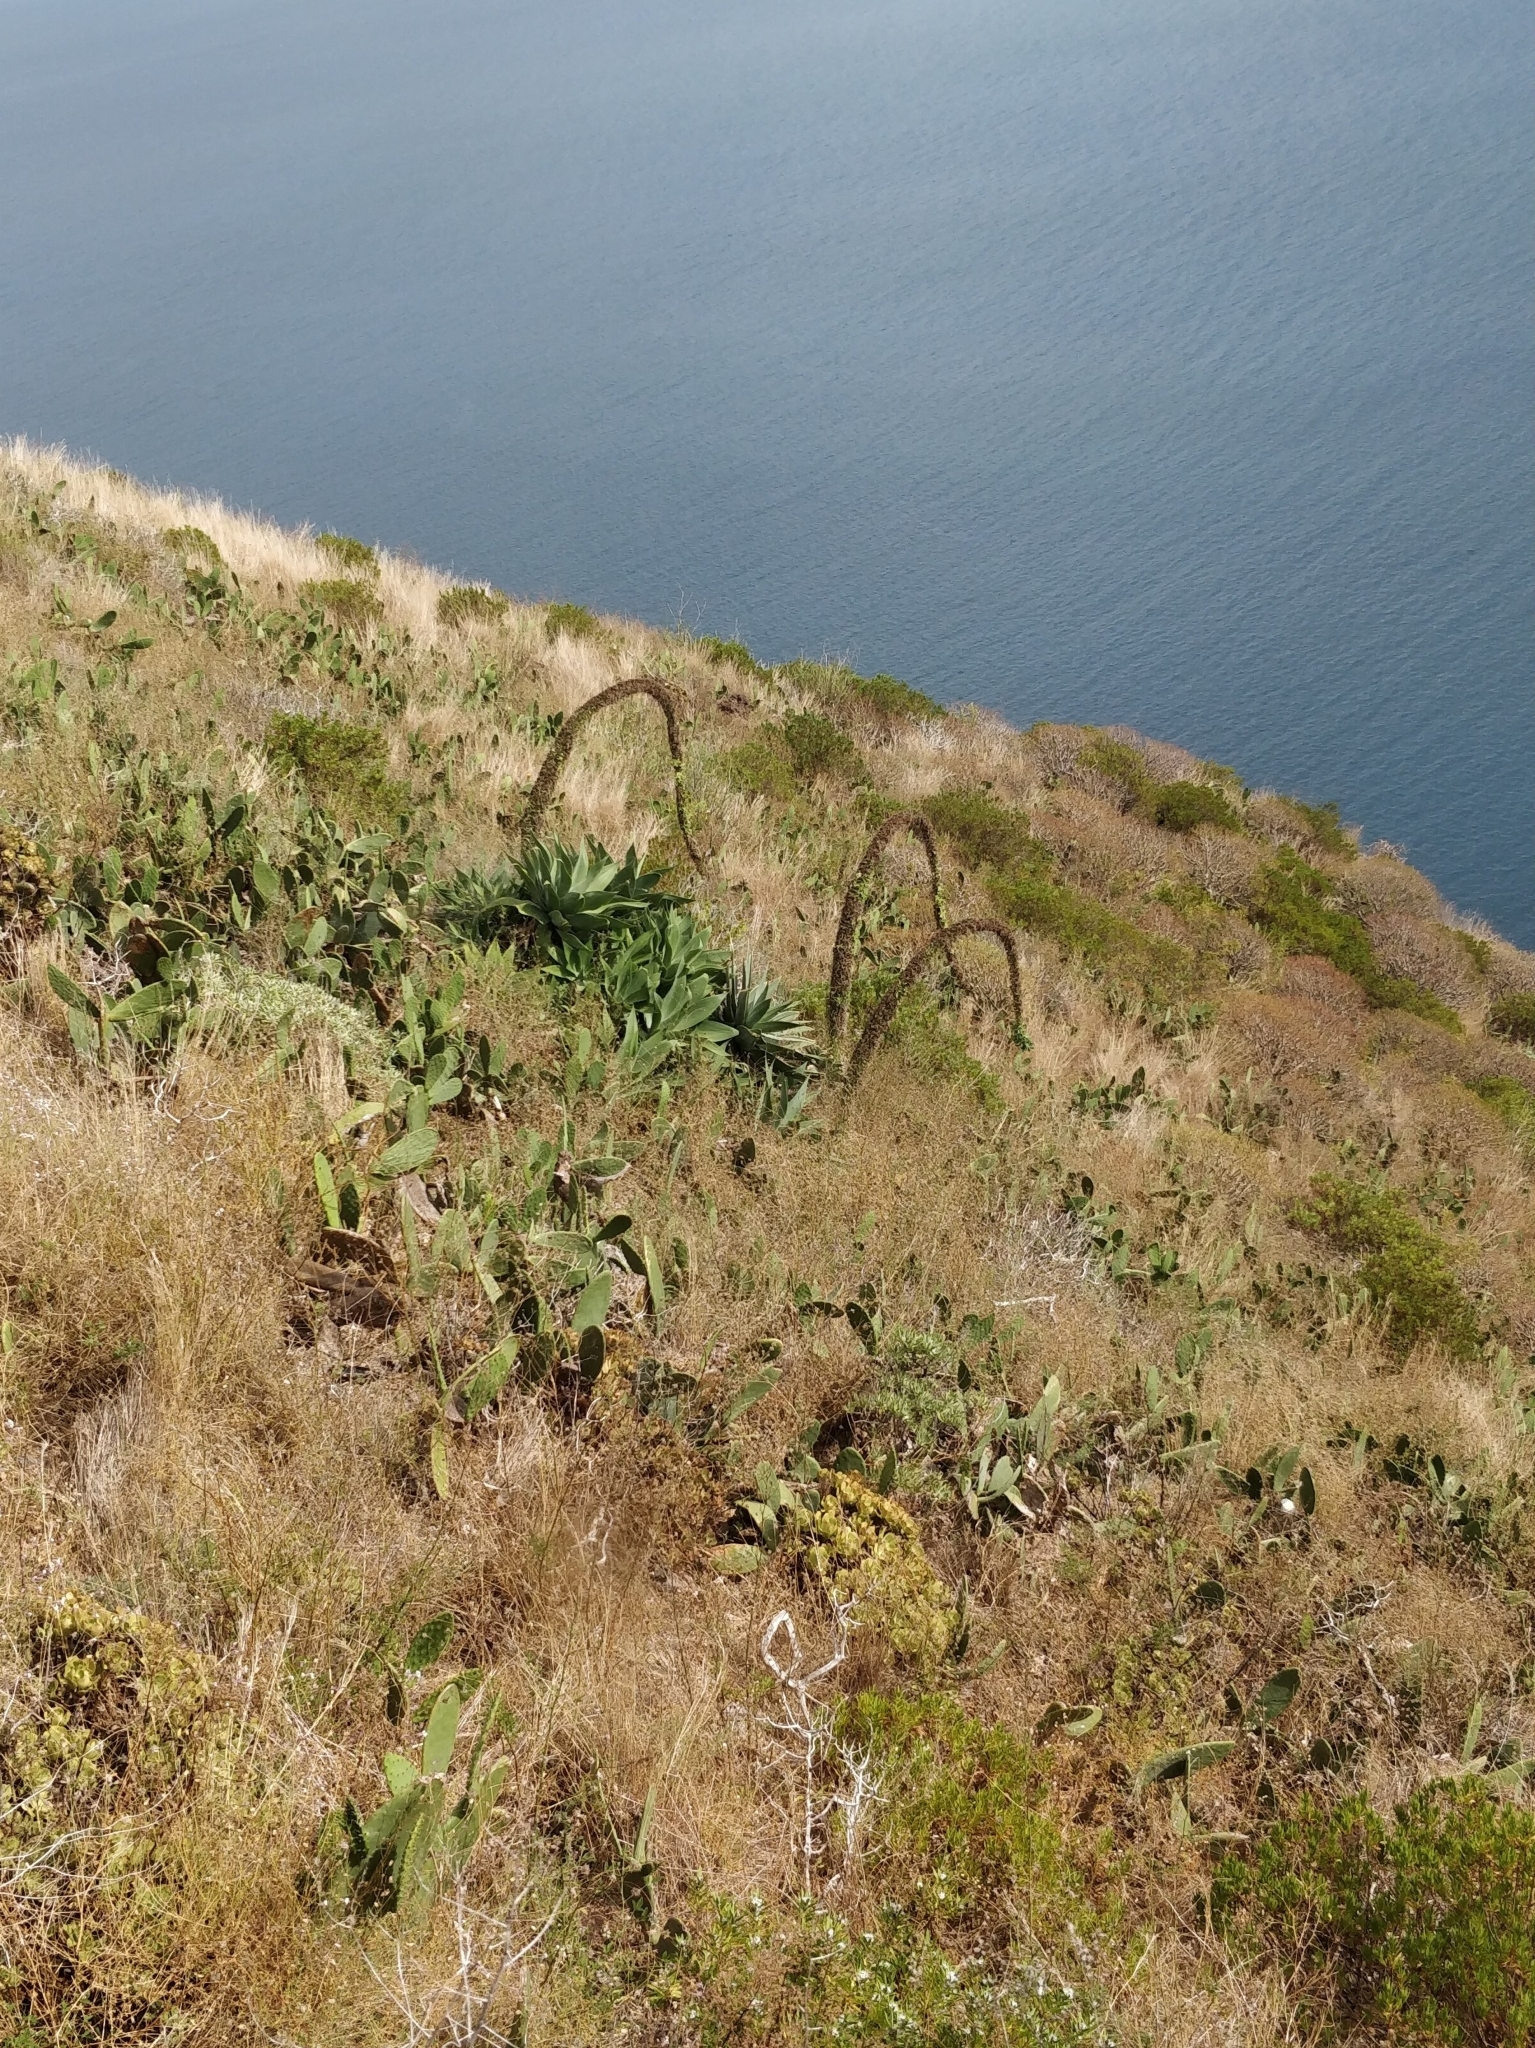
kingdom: Plantae
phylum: Tracheophyta
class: Liliopsida
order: Asparagales
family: Asparagaceae
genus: Agave
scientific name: Agave attenuata
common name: Fox tail agave
